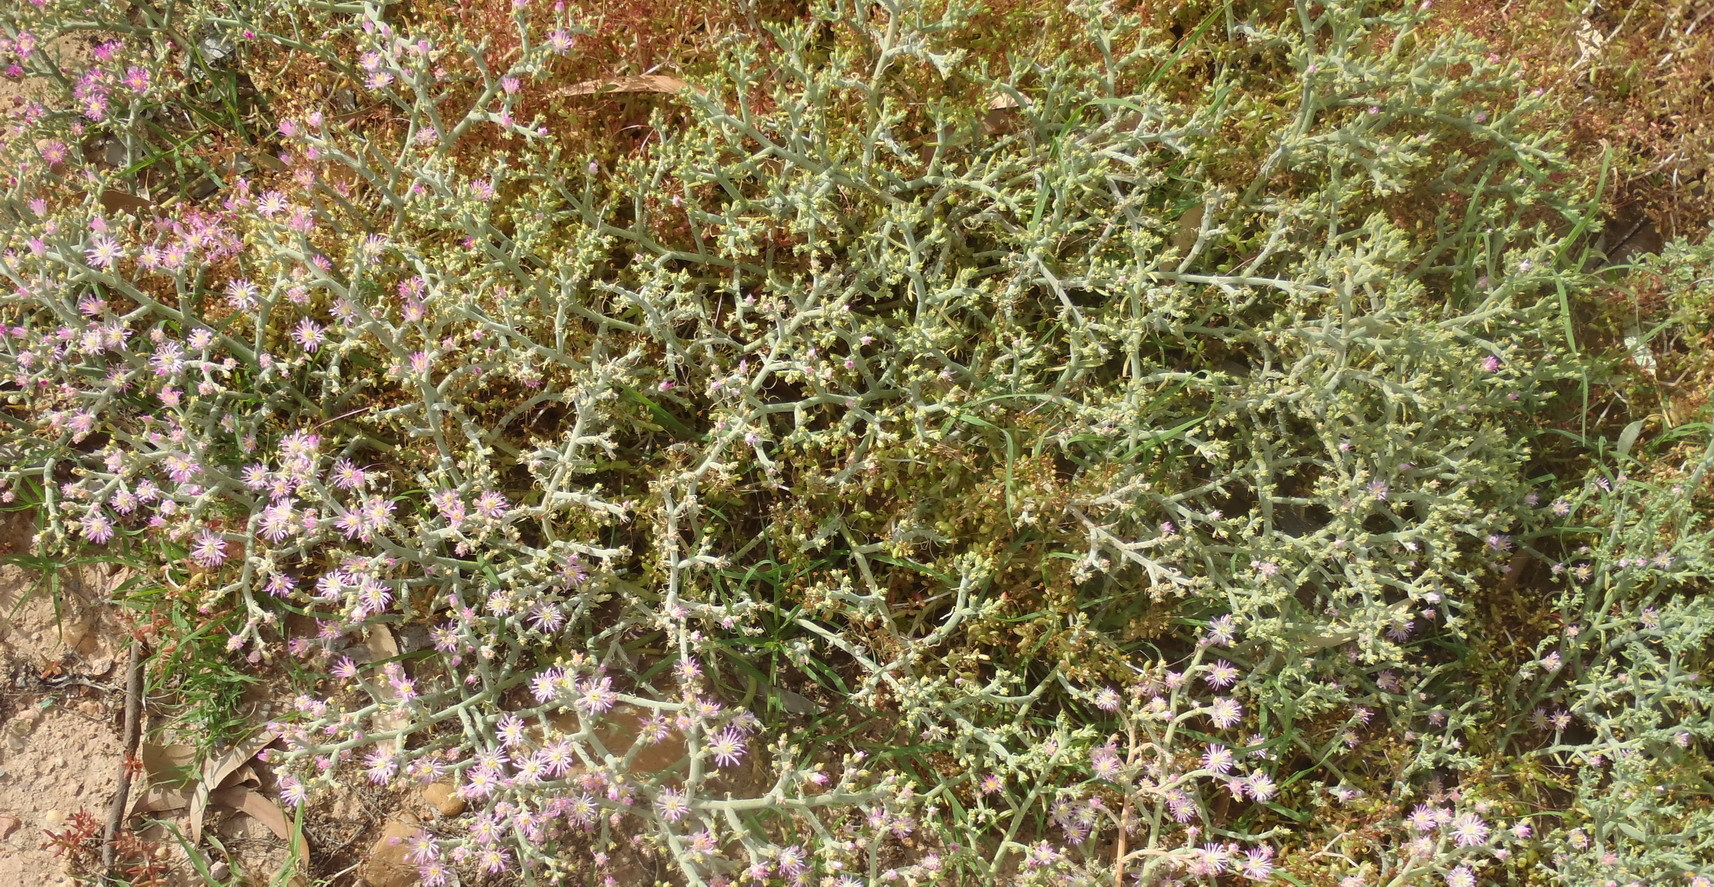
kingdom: Plantae
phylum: Tracheophyta
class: Magnoliopsida
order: Caryophyllales
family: Aizoaceae
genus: Mesembryanthemum
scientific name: Mesembryanthemum articulatum
